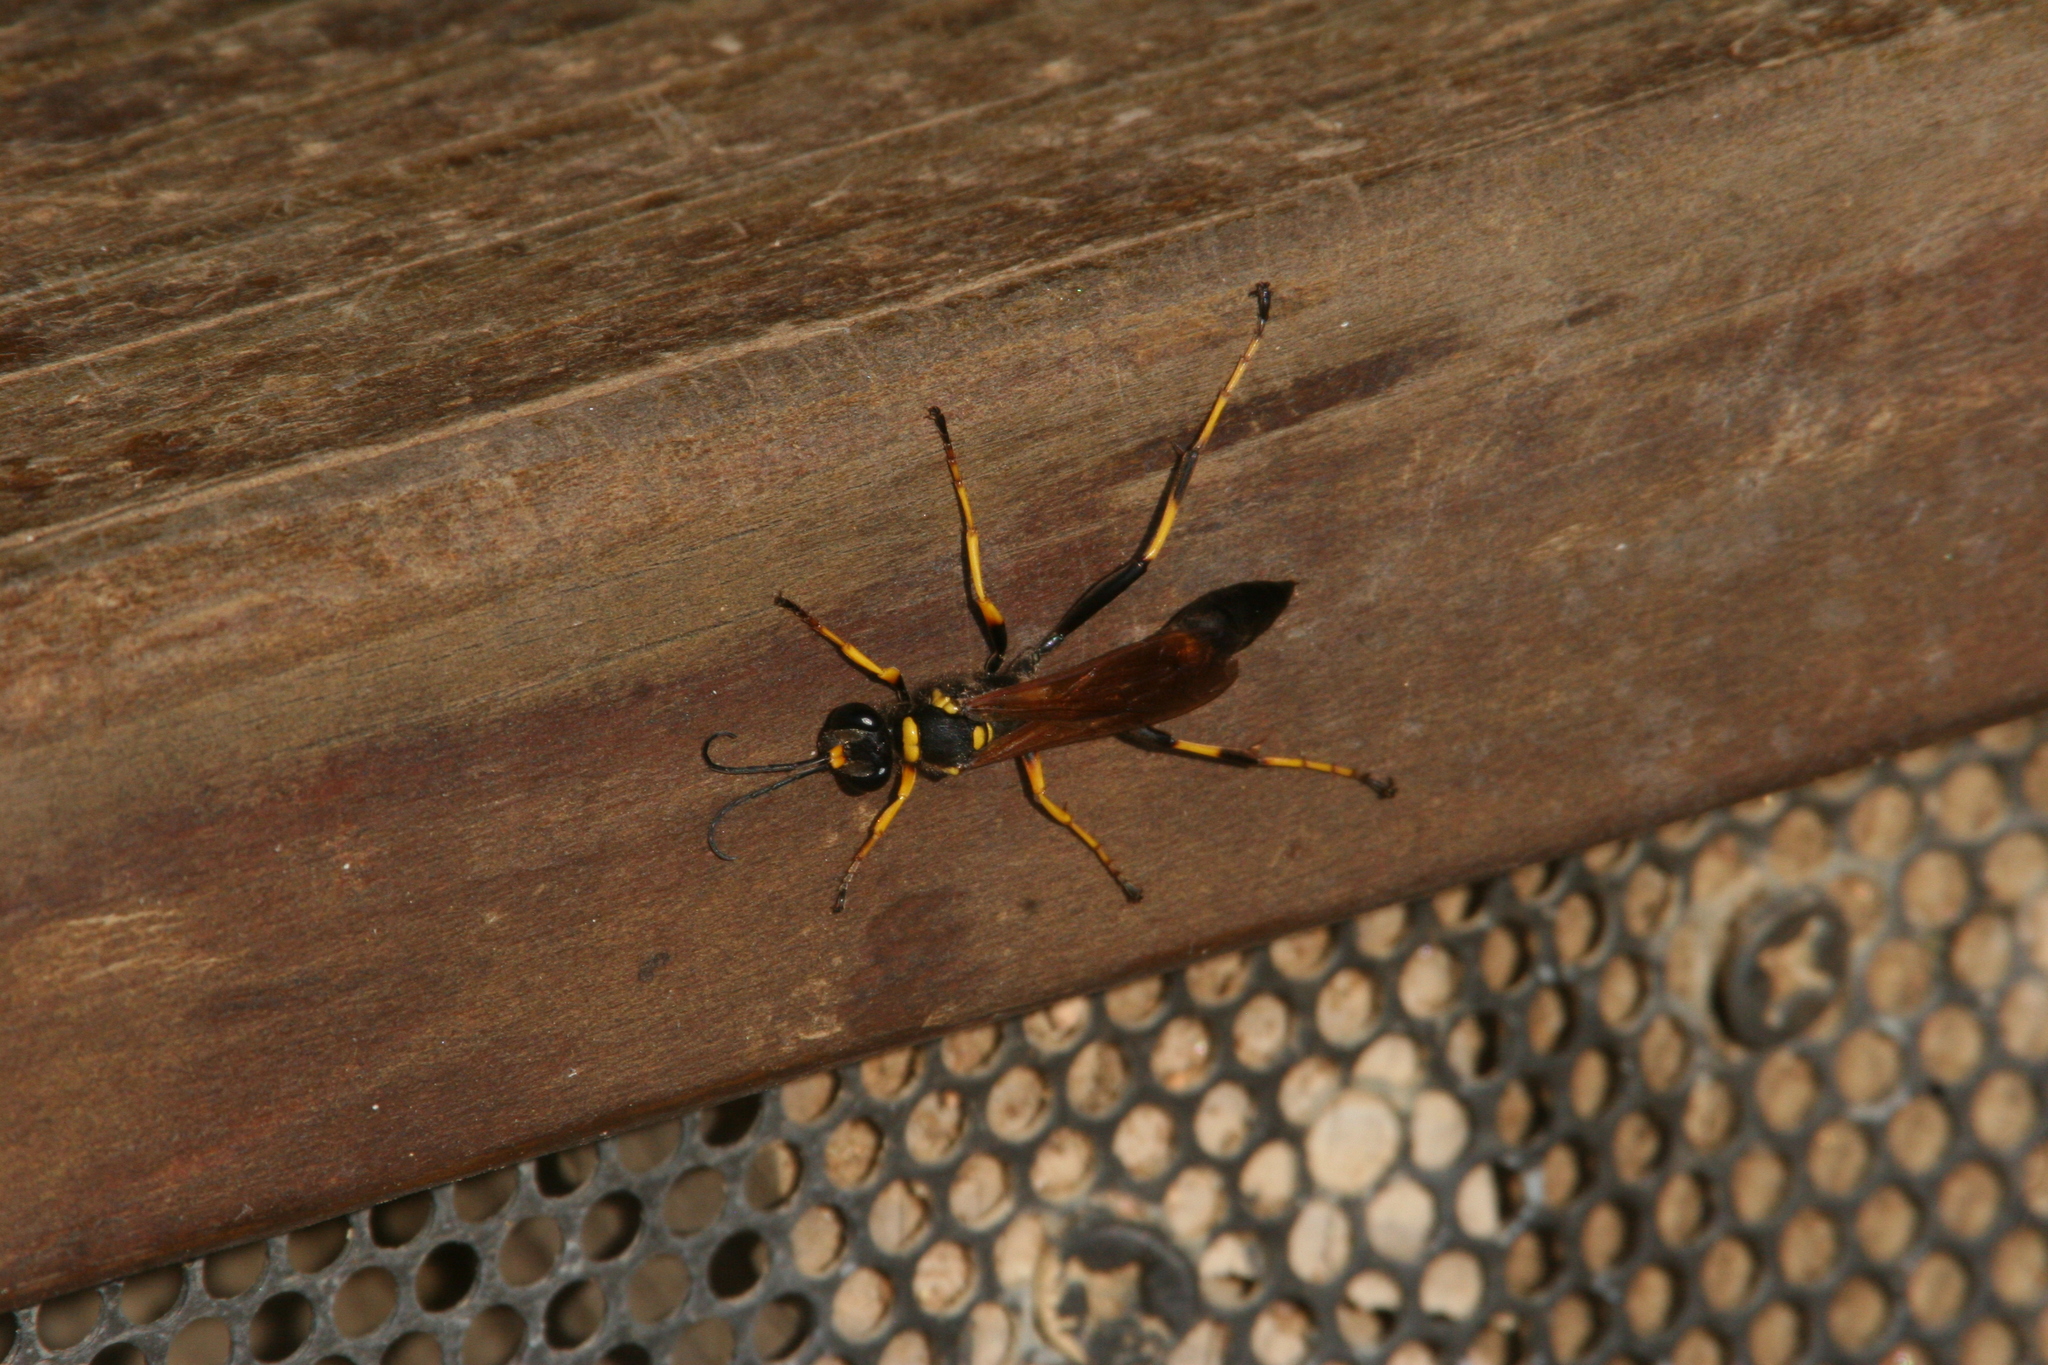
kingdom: Animalia
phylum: Arthropoda
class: Insecta
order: Hymenoptera
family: Sphecidae
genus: Sceliphron
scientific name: Sceliphron caementarium
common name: Mud dauber
